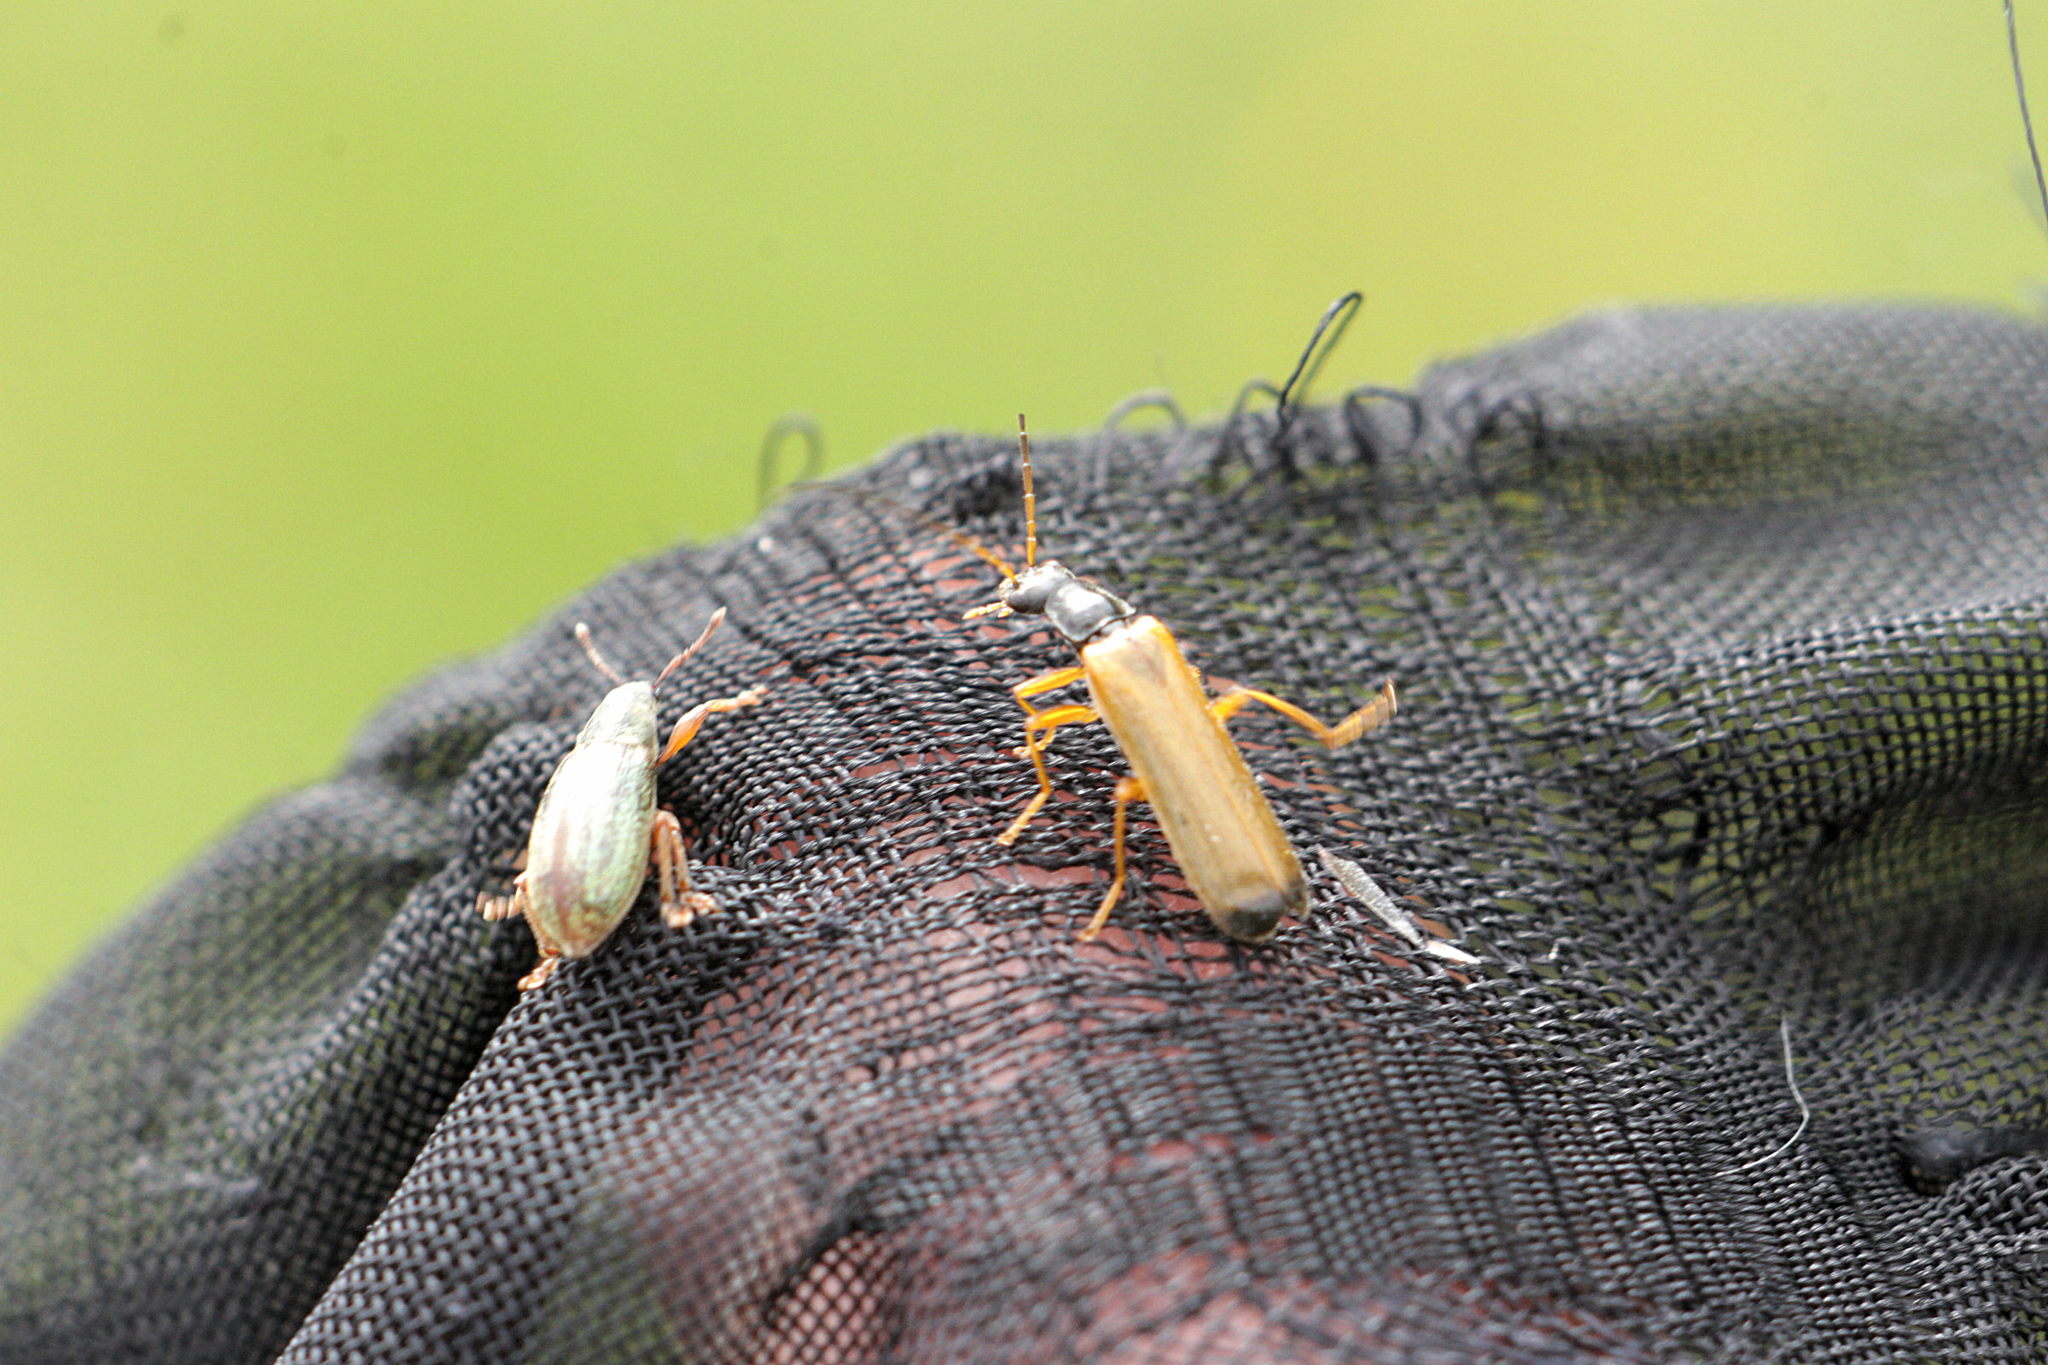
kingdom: Animalia
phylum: Arthropoda
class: Insecta
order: Coleoptera
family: Cantharidae
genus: Rhagonycha
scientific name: Rhagonycha lignosa
